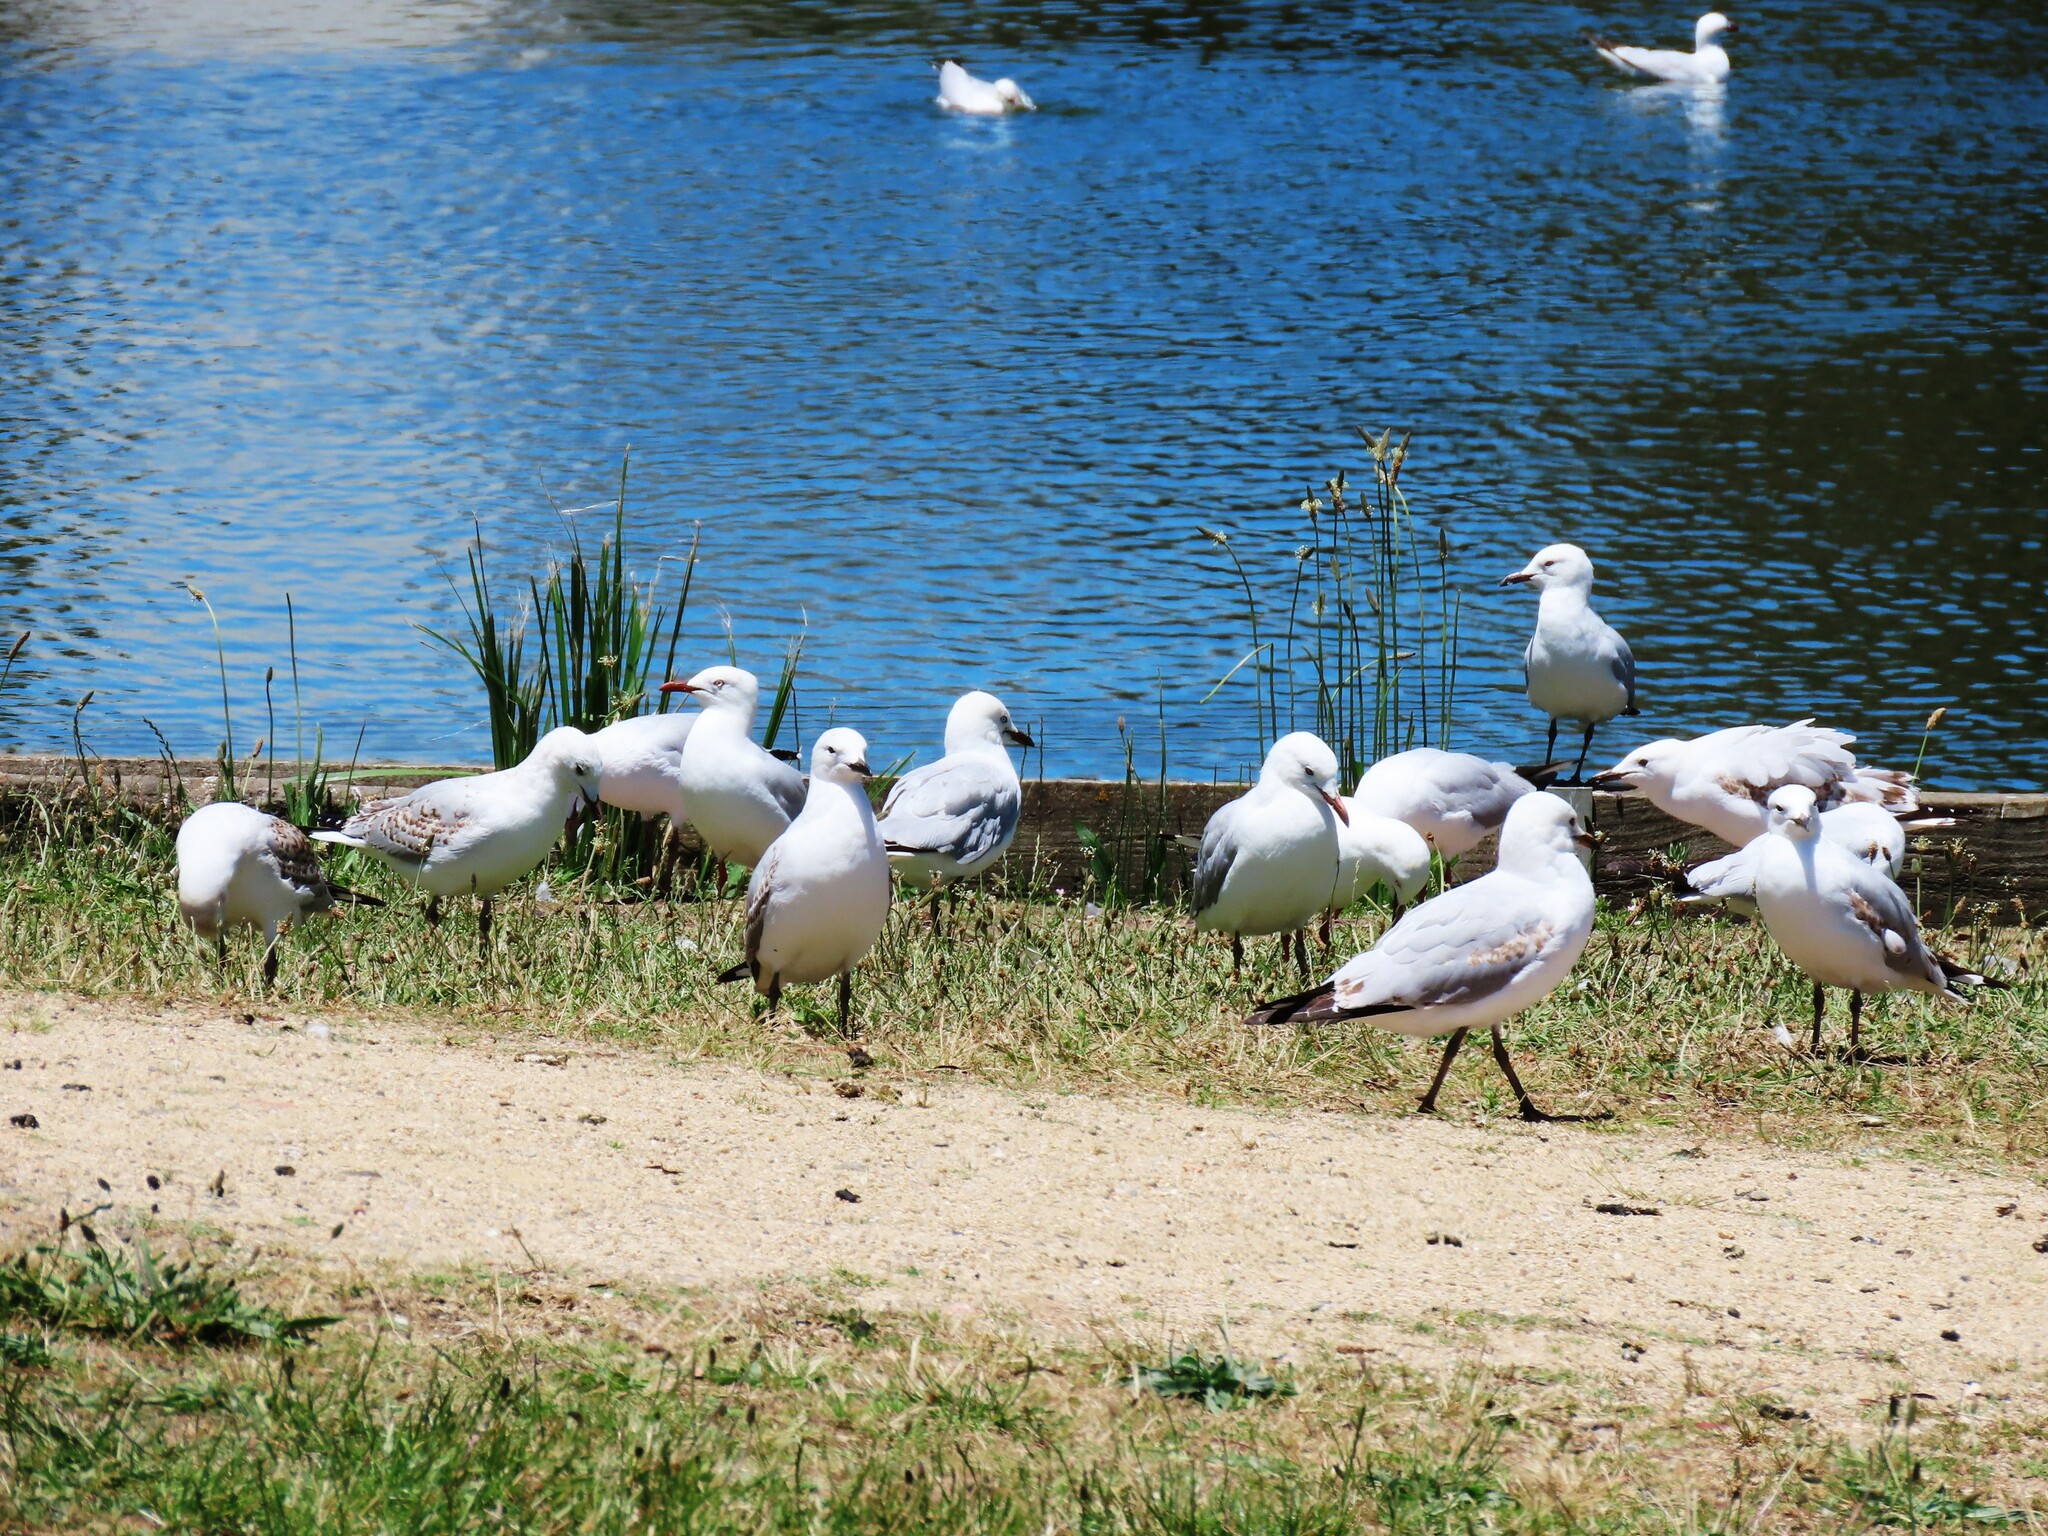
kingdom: Animalia
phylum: Chordata
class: Aves
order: Charadriiformes
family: Laridae
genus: Chroicocephalus
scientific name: Chroicocephalus novaehollandiae
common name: Silver gull
